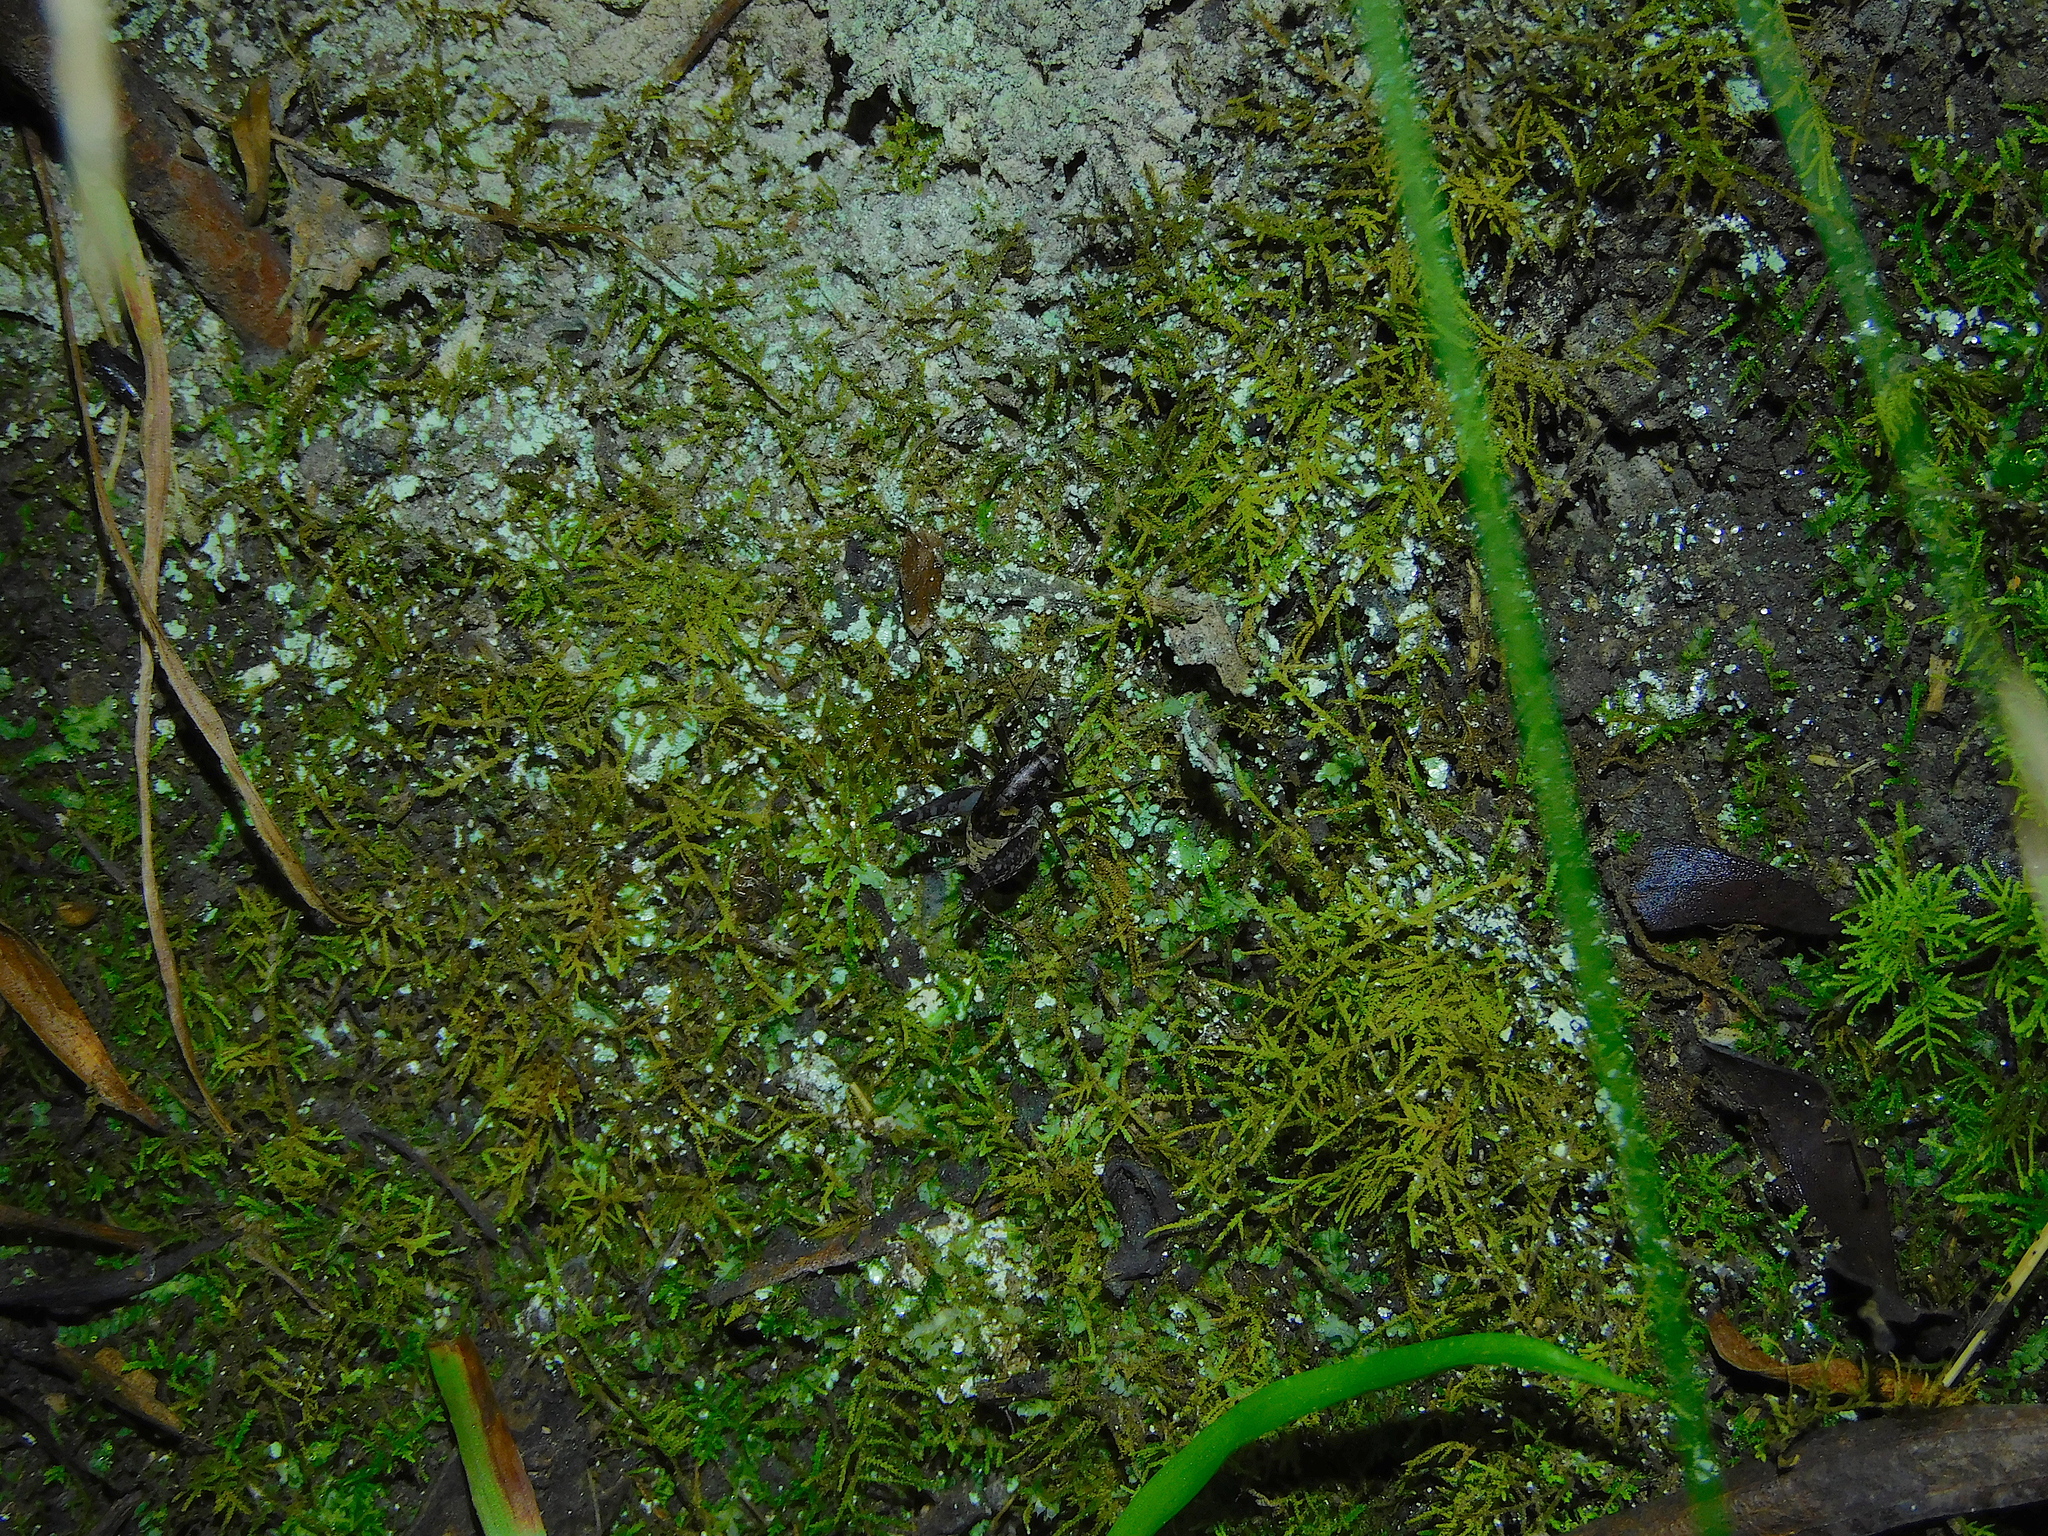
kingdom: Animalia
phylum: Arthropoda
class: Insecta
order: Orthoptera
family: Rhaphidophoridae
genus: Parvotettix
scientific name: Parvotettix domesticus
